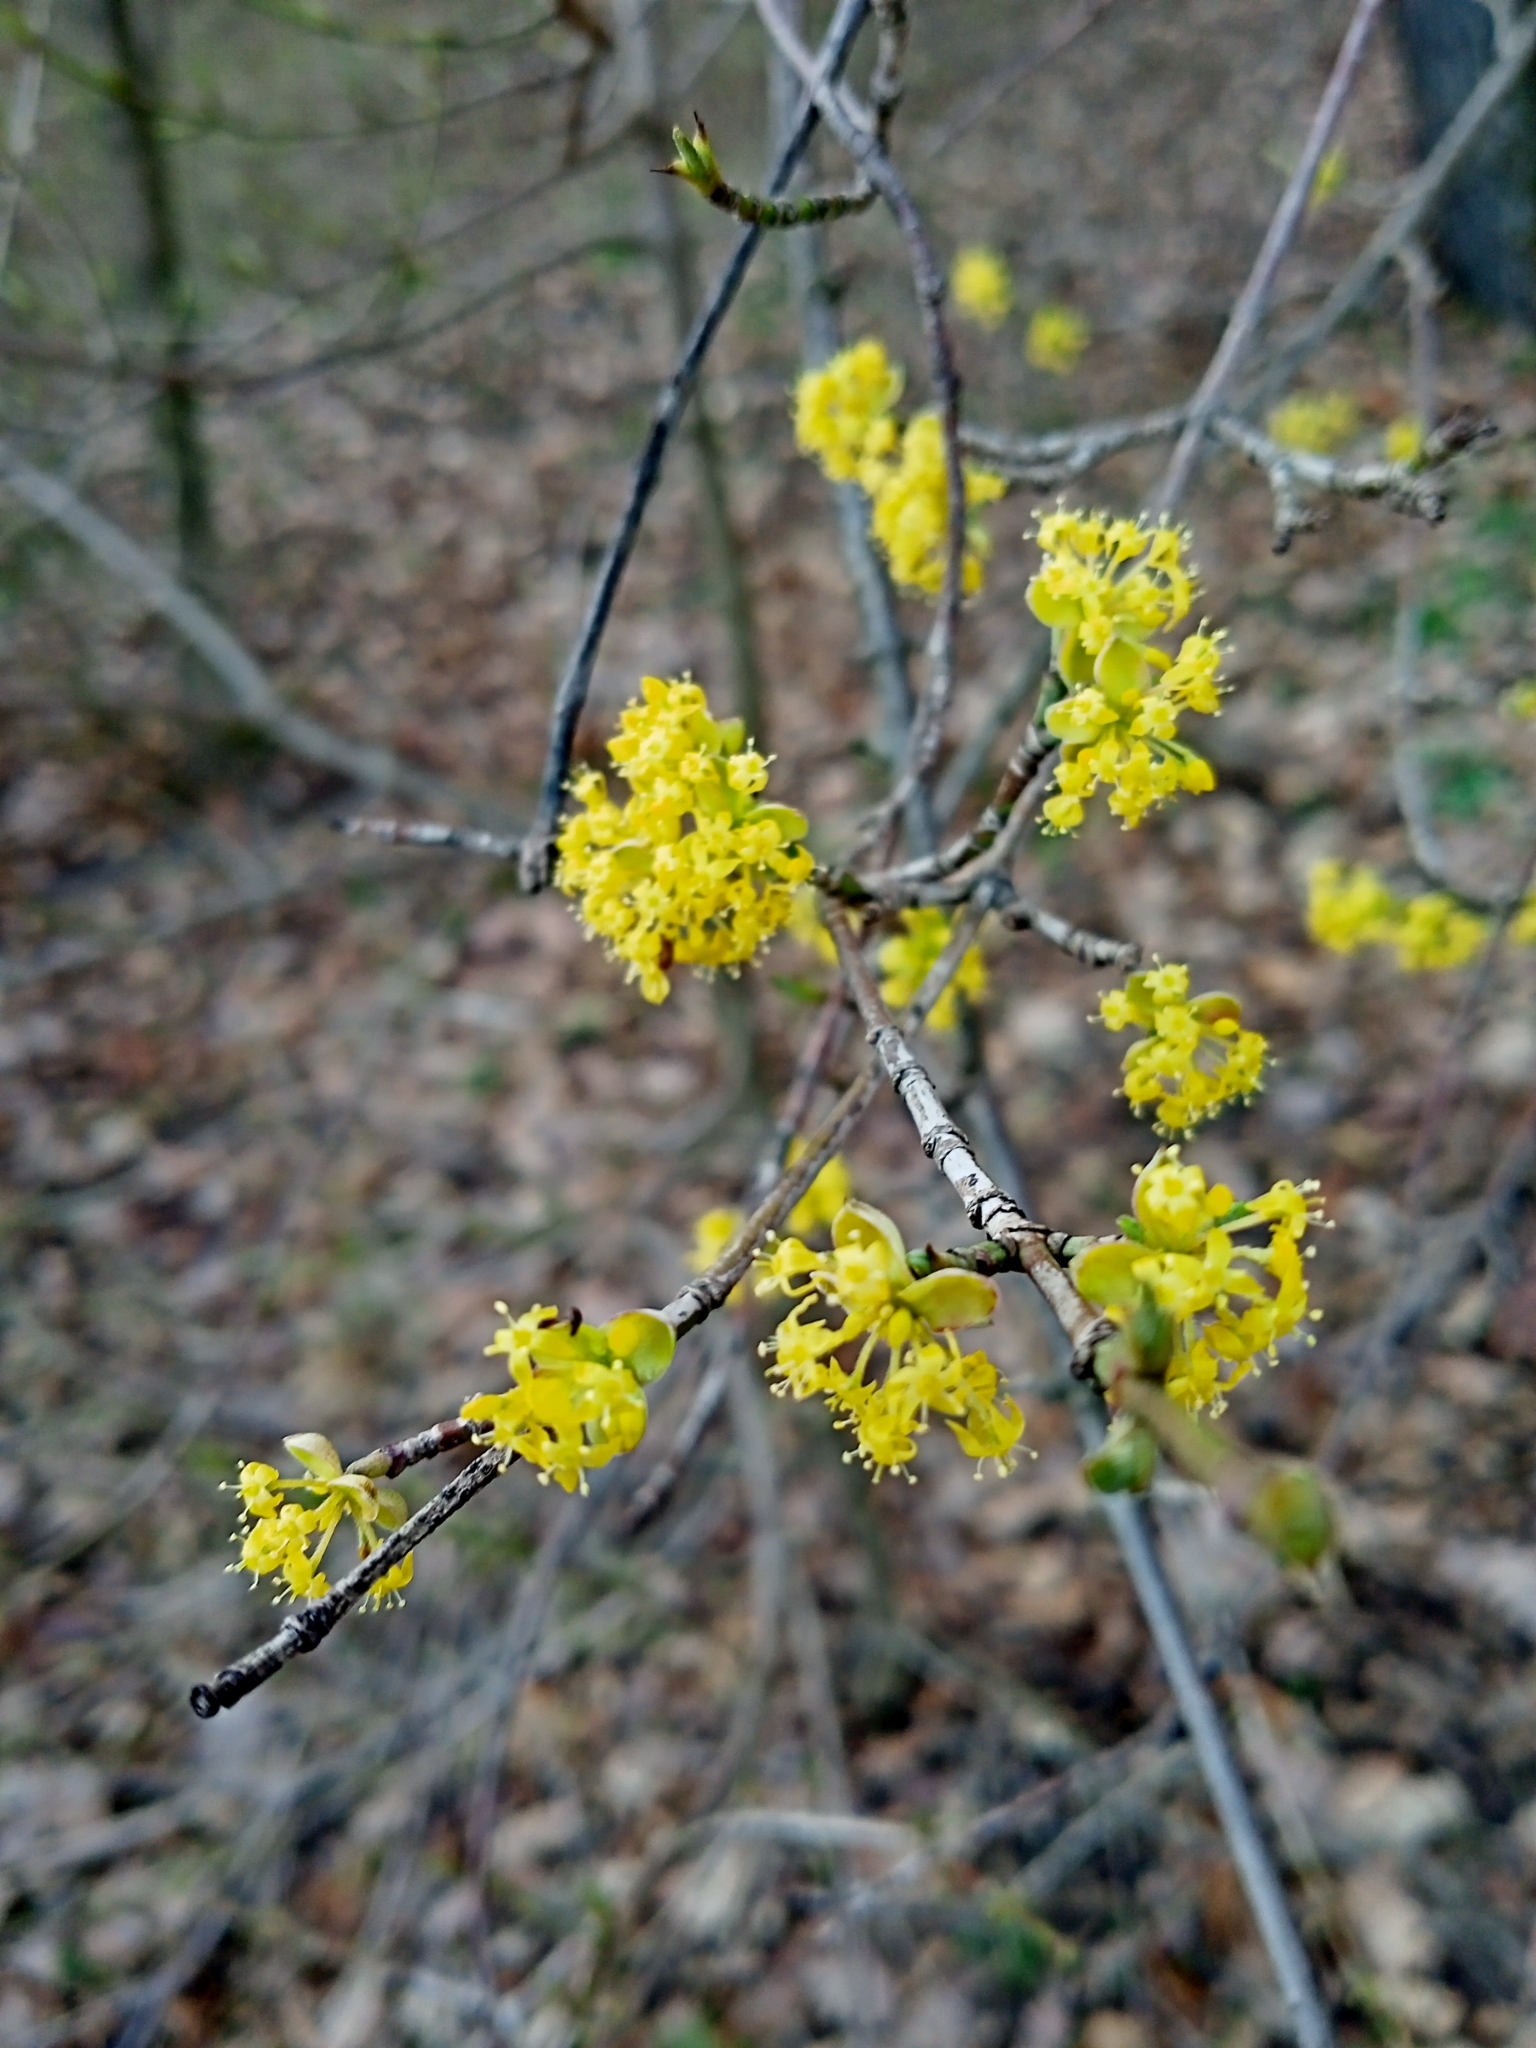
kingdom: Plantae
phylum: Tracheophyta
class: Magnoliopsida
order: Cornales
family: Cornaceae
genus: Cornus
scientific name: Cornus mas
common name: Cornelian-cherry
